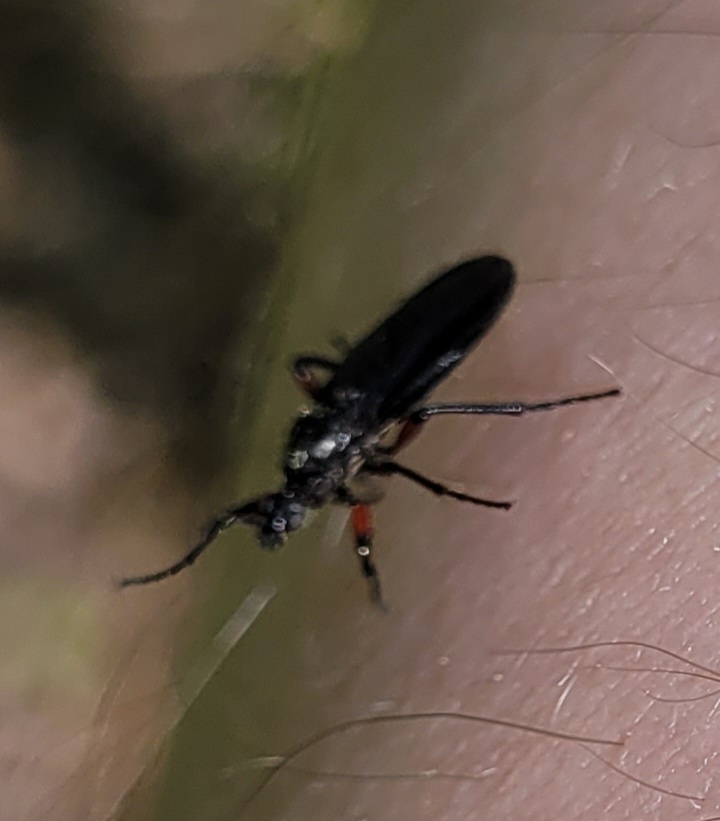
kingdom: Animalia
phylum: Arthropoda
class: Insecta
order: Diptera
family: Bibionidae
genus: Bibio
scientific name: Bibio femoratus
